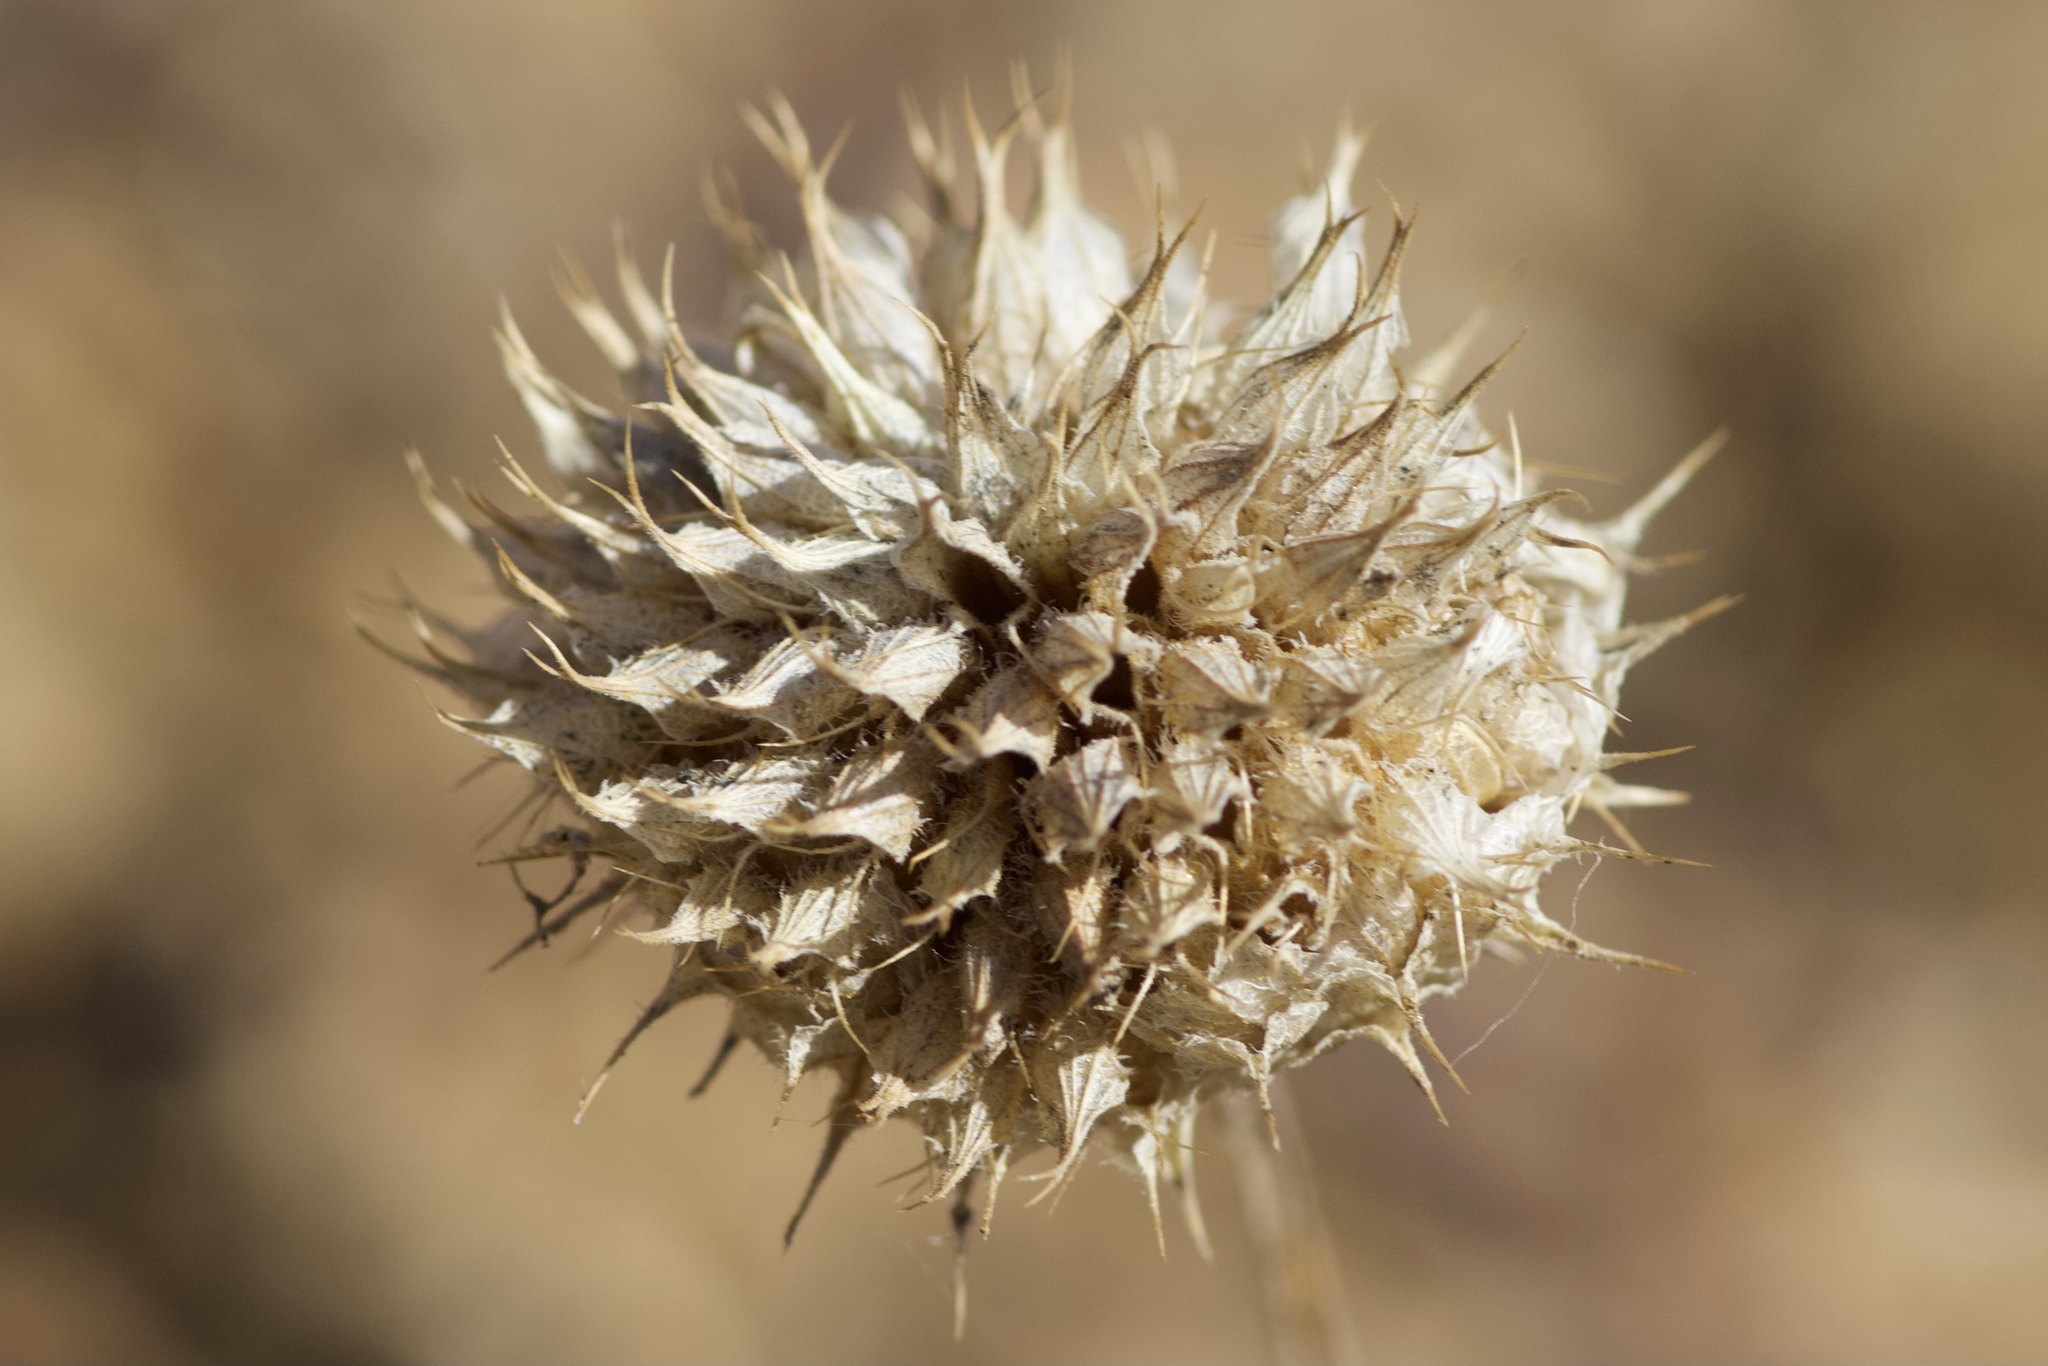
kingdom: Plantae
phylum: Tracheophyta
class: Magnoliopsida
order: Lamiales
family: Lamiaceae
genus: Salvia
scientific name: Salvia columbariae
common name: Chia
